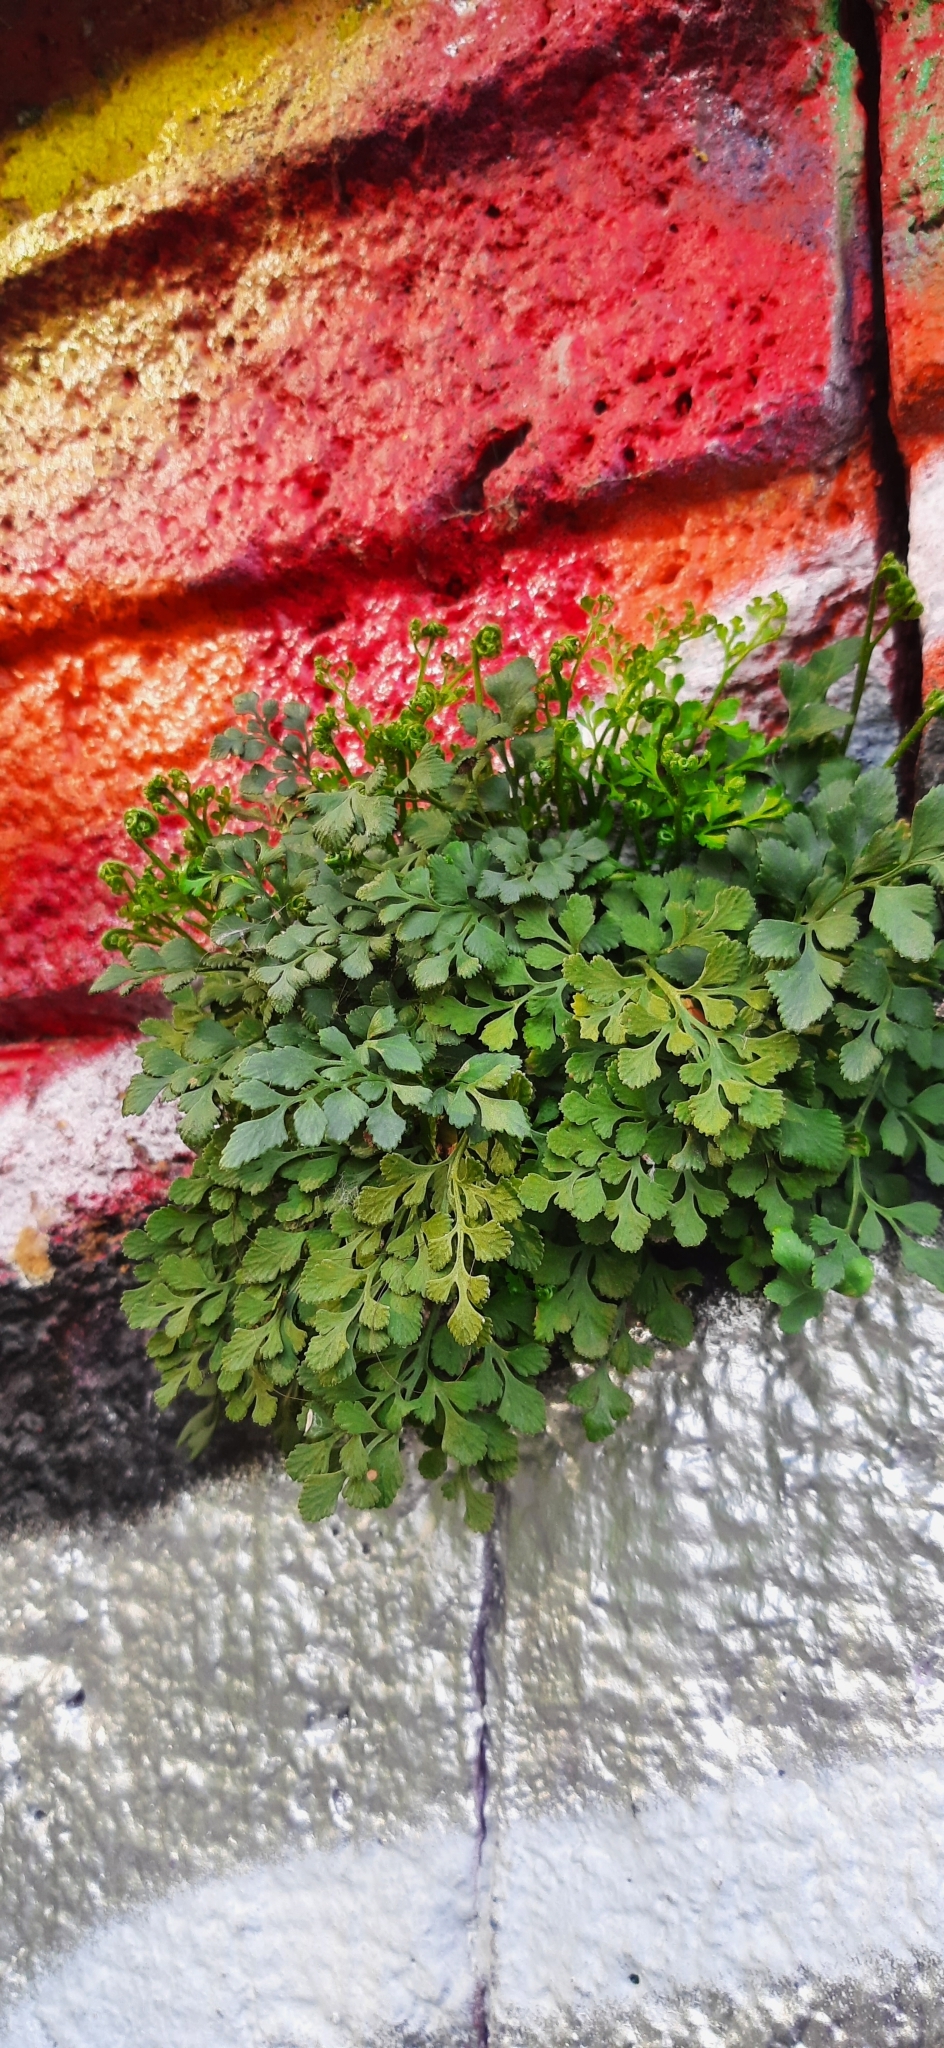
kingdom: Plantae
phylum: Tracheophyta
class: Polypodiopsida
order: Polypodiales
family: Aspleniaceae
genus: Asplenium
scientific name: Asplenium ruta-muraria
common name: Wall-rue
